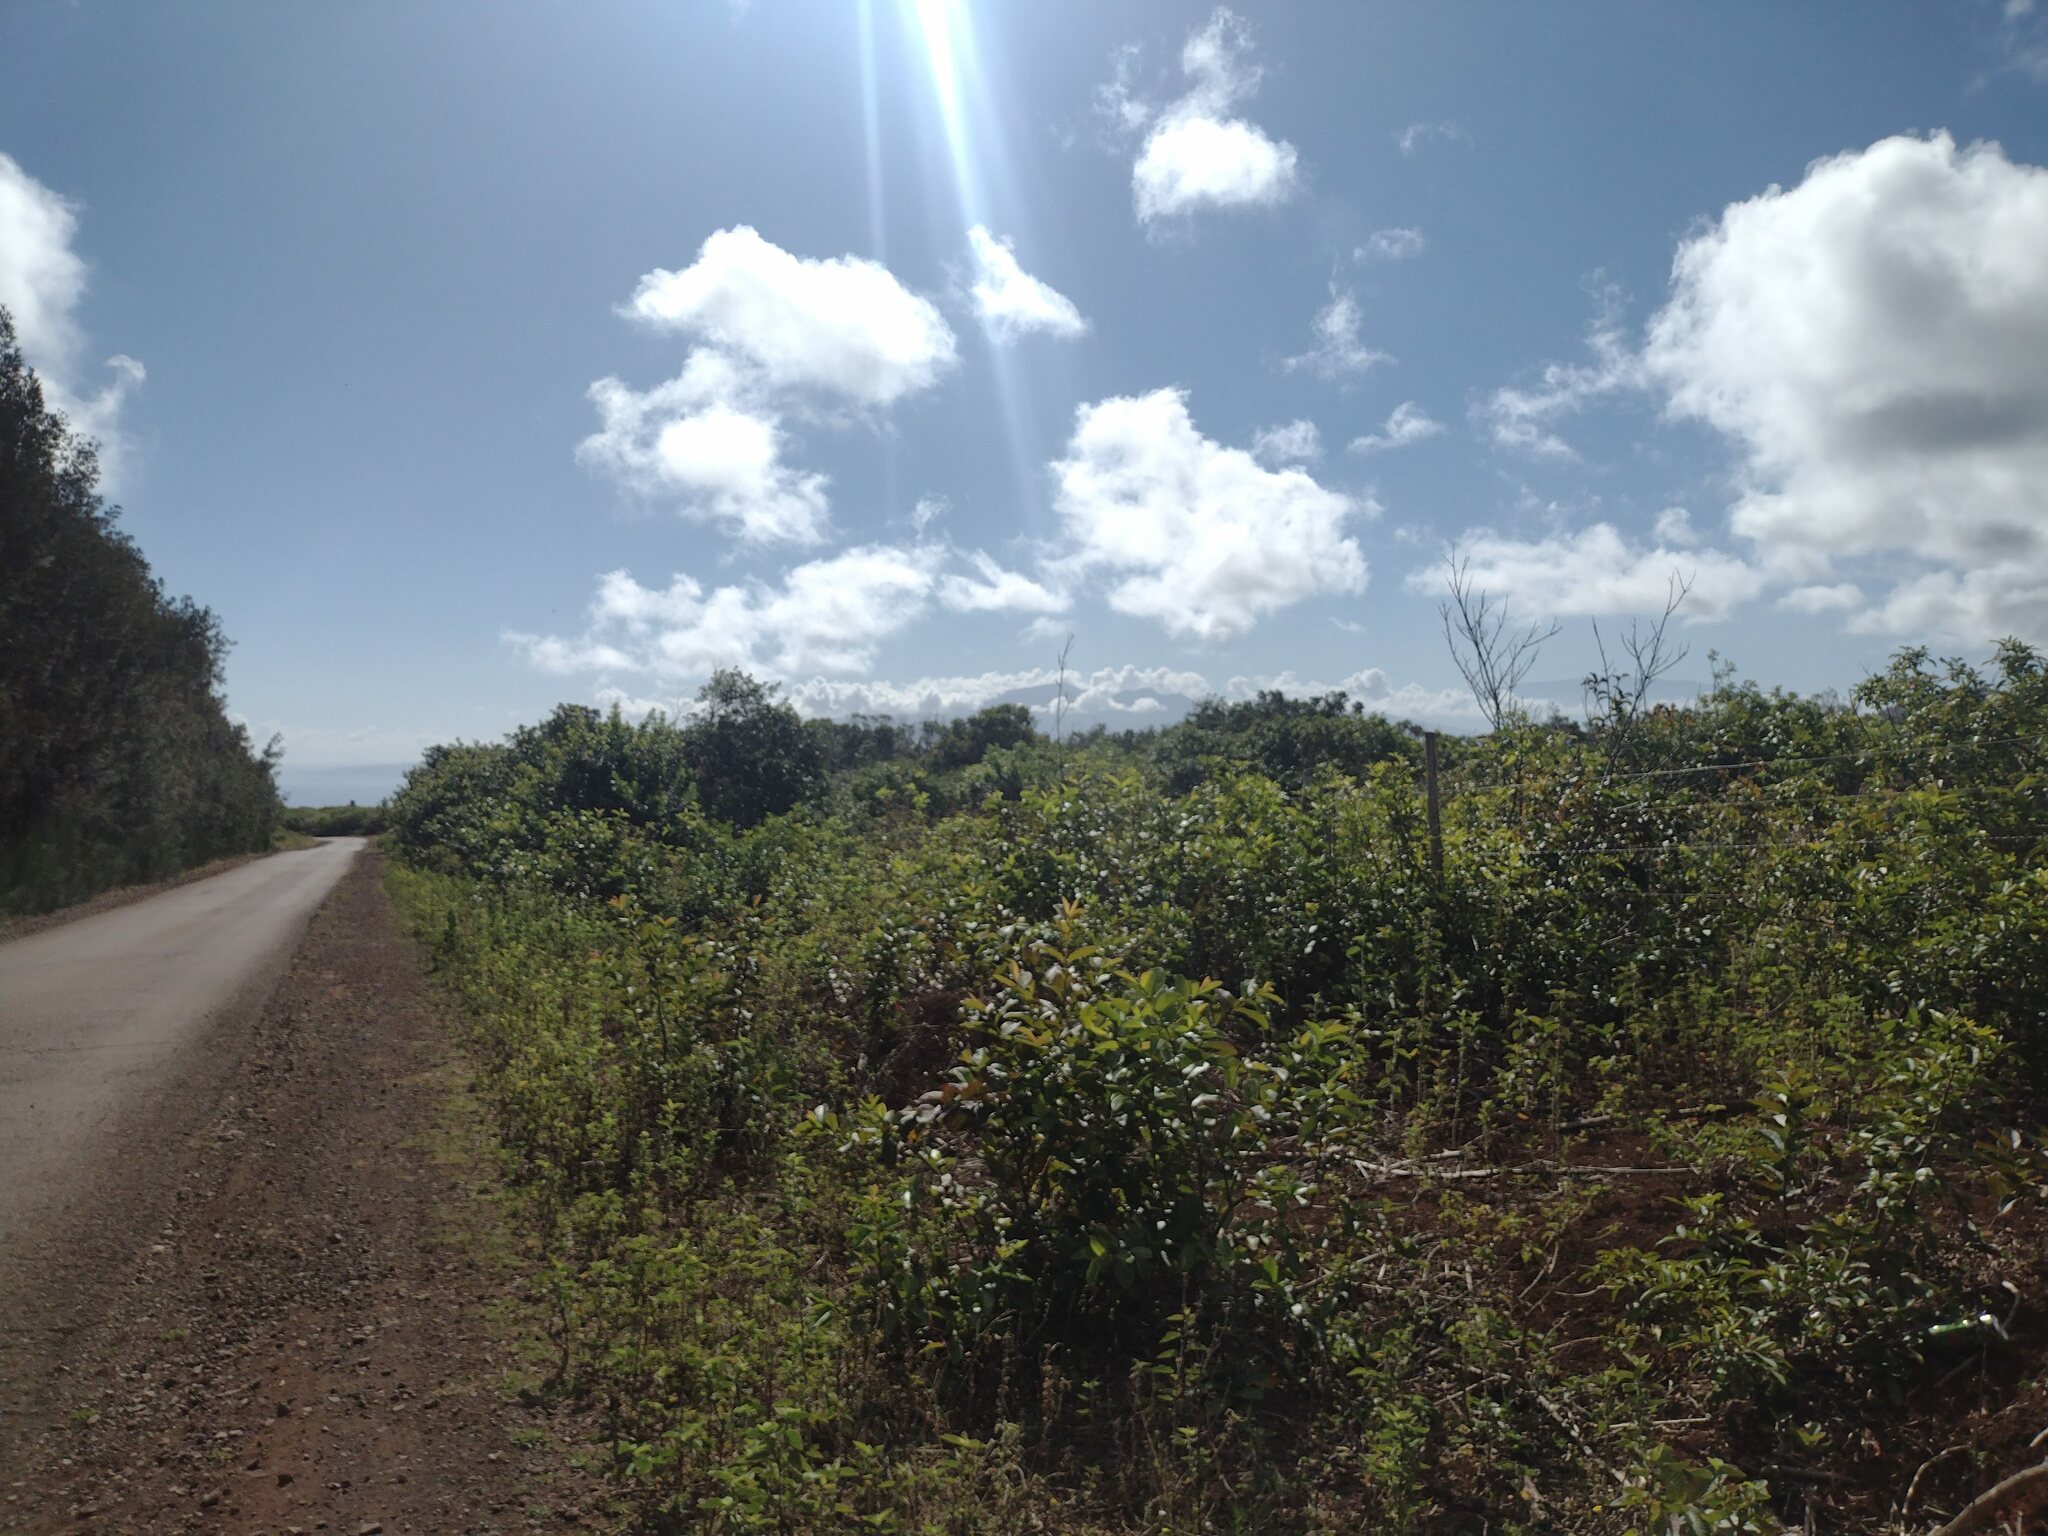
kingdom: Plantae
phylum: Tracheophyta
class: Magnoliopsida
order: Sapindales
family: Anacardiaceae
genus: Schinus
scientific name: Schinus terebinthifolia
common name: Brazilian peppertree
